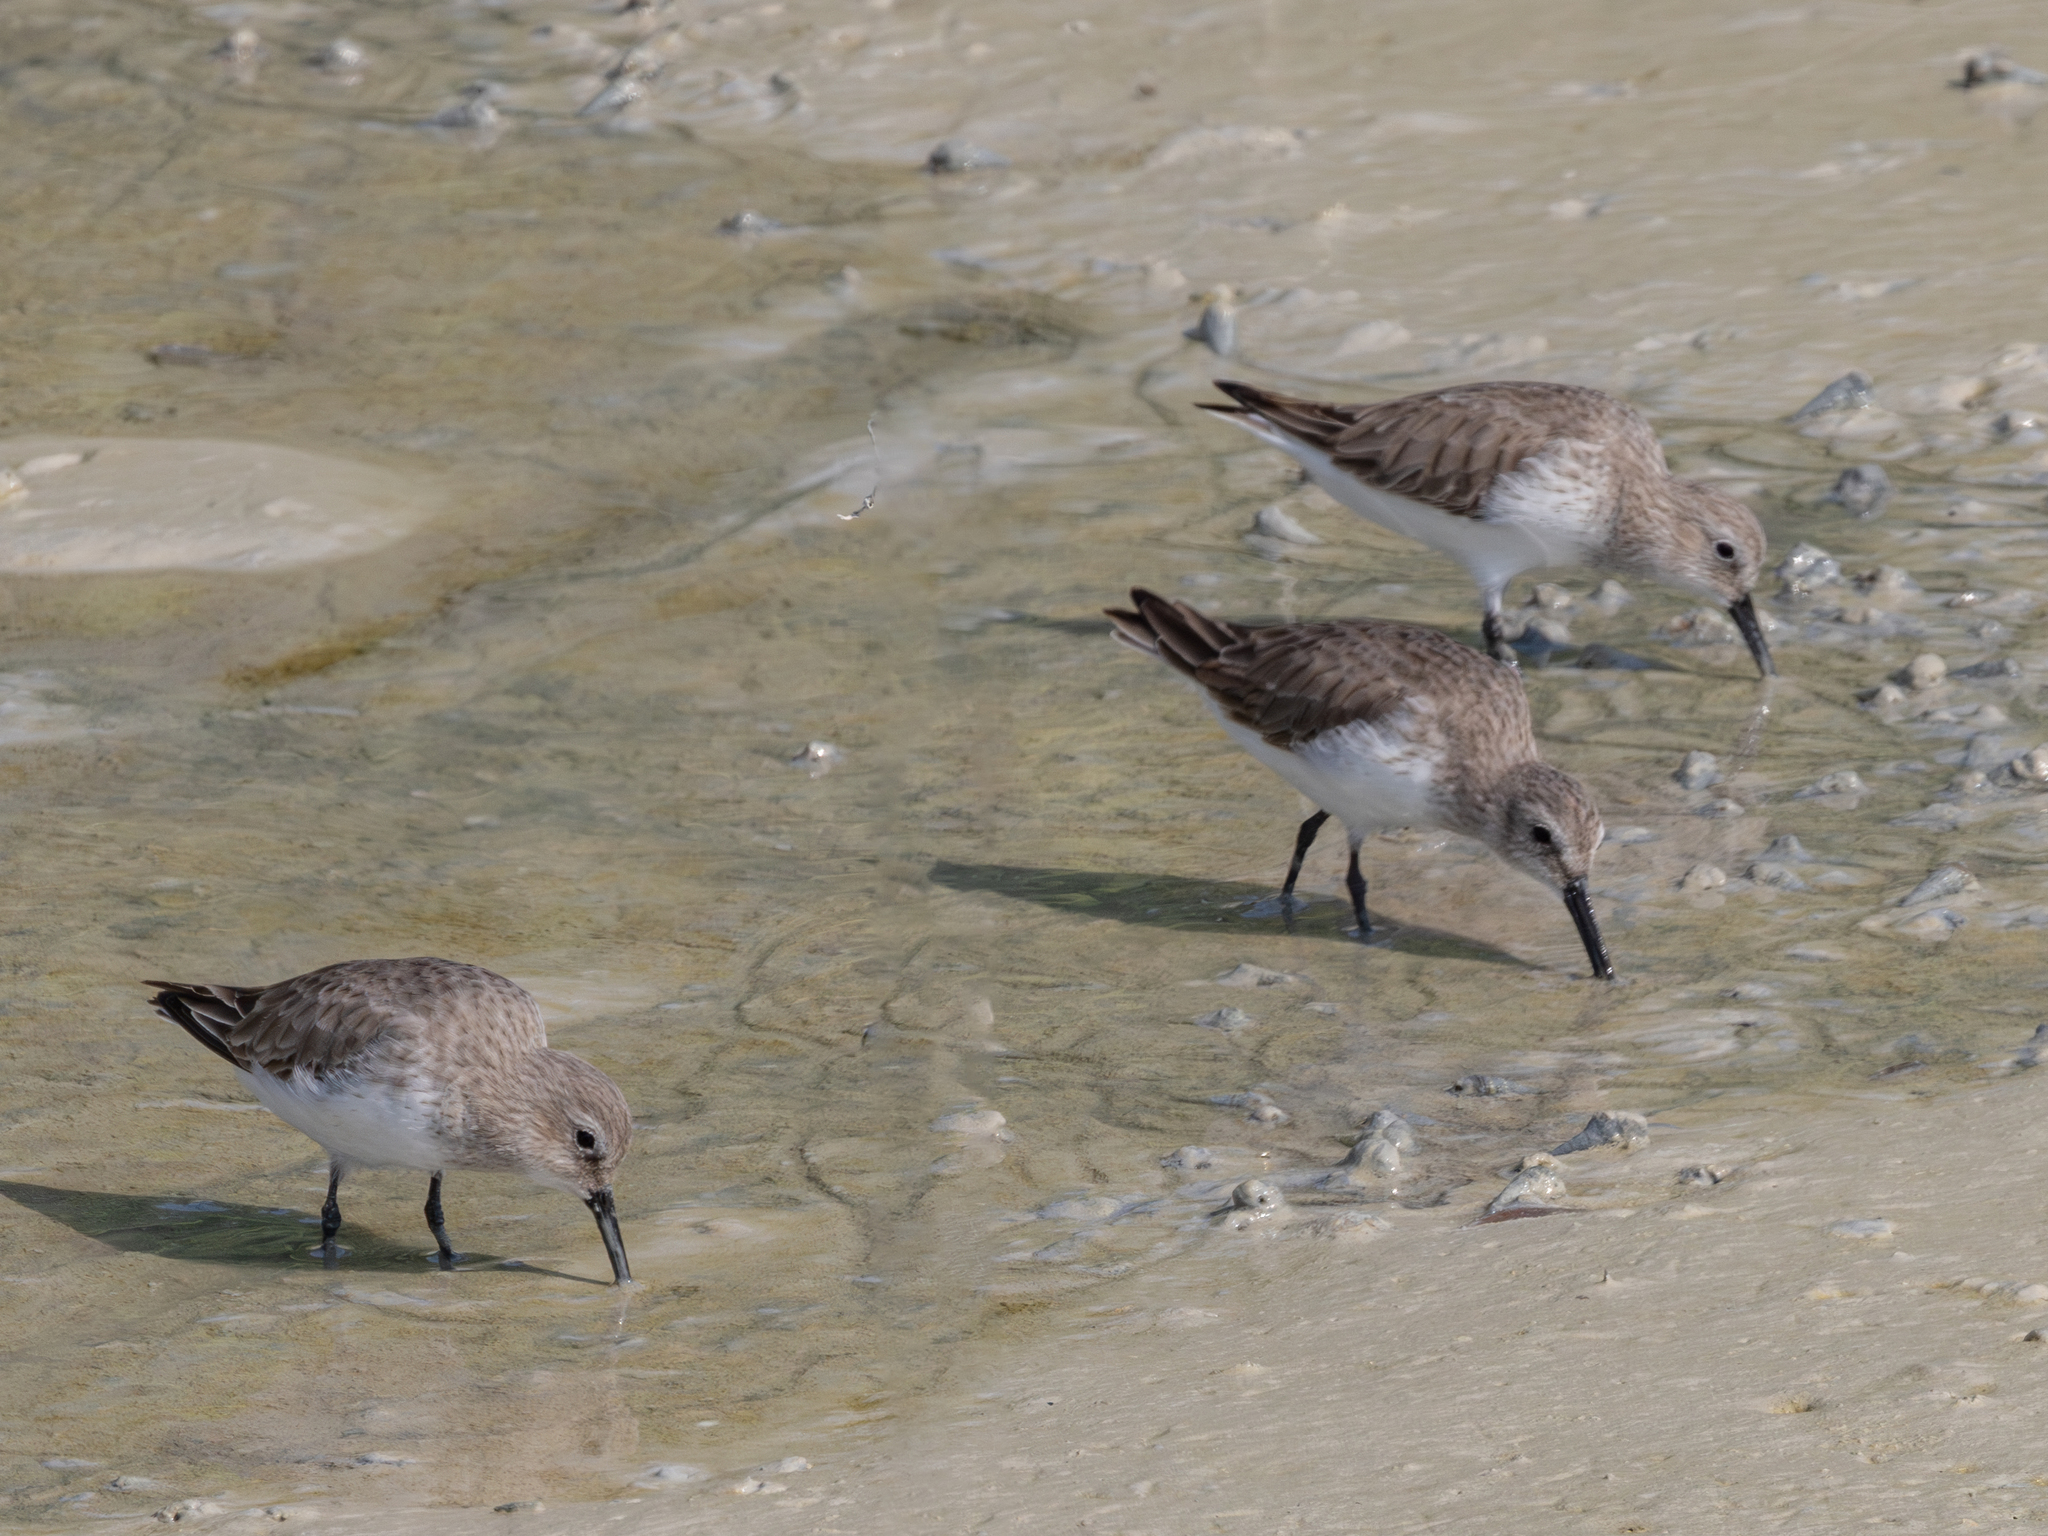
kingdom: Animalia
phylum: Chordata
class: Aves
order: Charadriiformes
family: Scolopacidae
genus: Calidris
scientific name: Calidris alpina
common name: Dunlin
